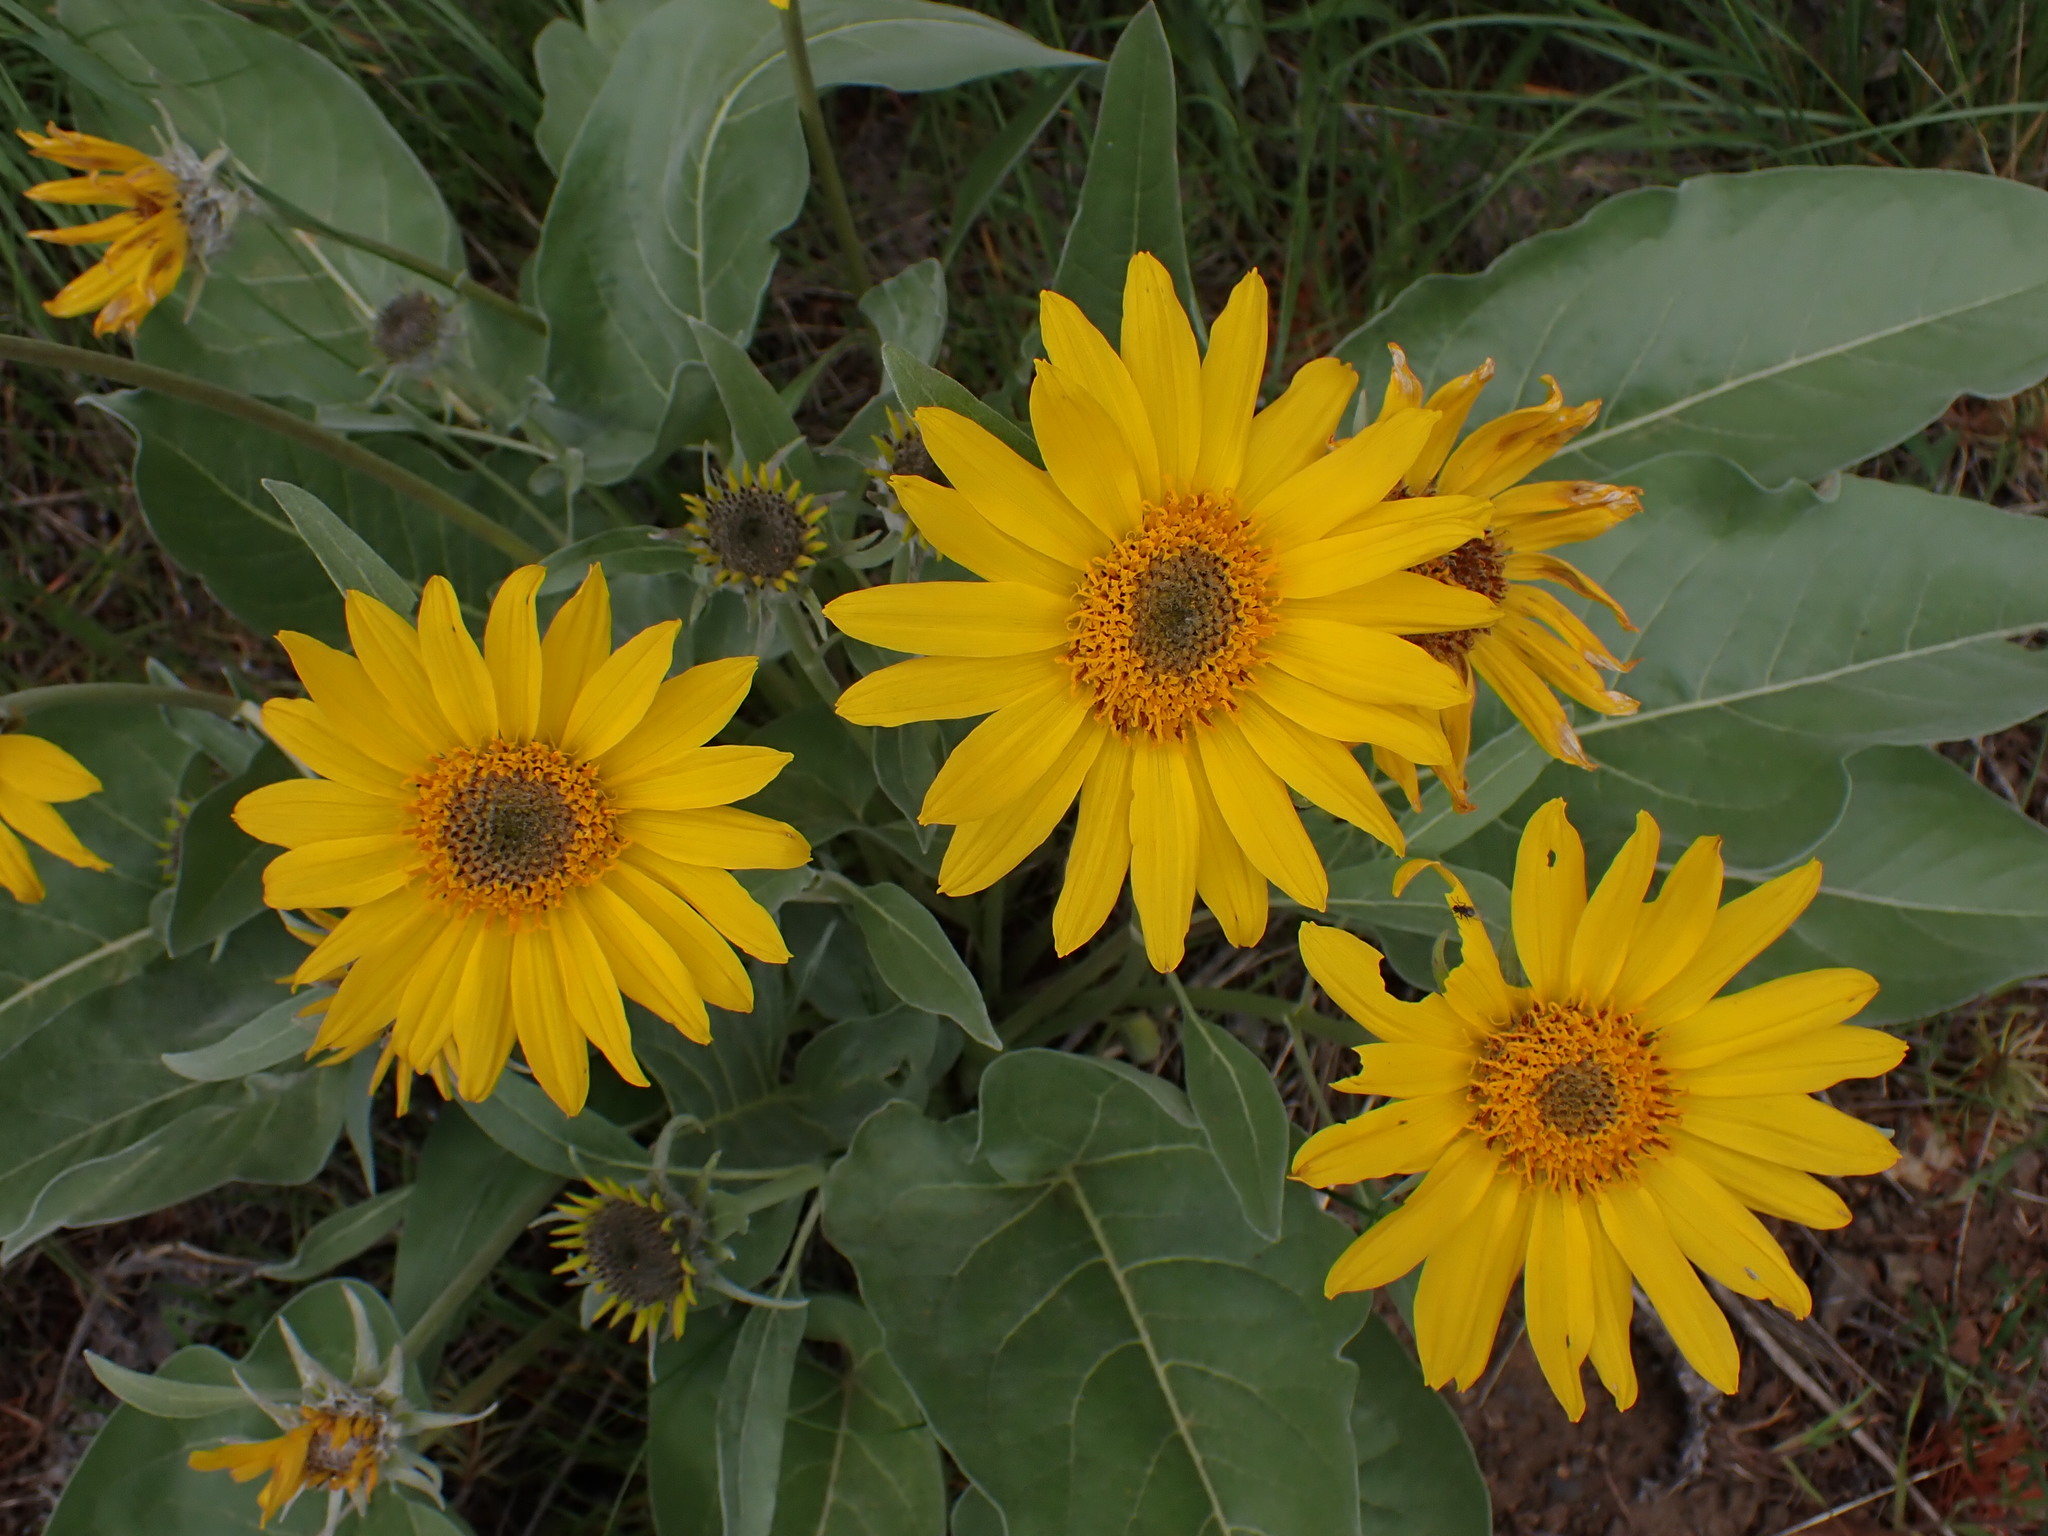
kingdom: Plantae
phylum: Tracheophyta
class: Magnoliopsida
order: Asterales
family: Asteraceae
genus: Wyethia
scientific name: Wyethia sagittata
